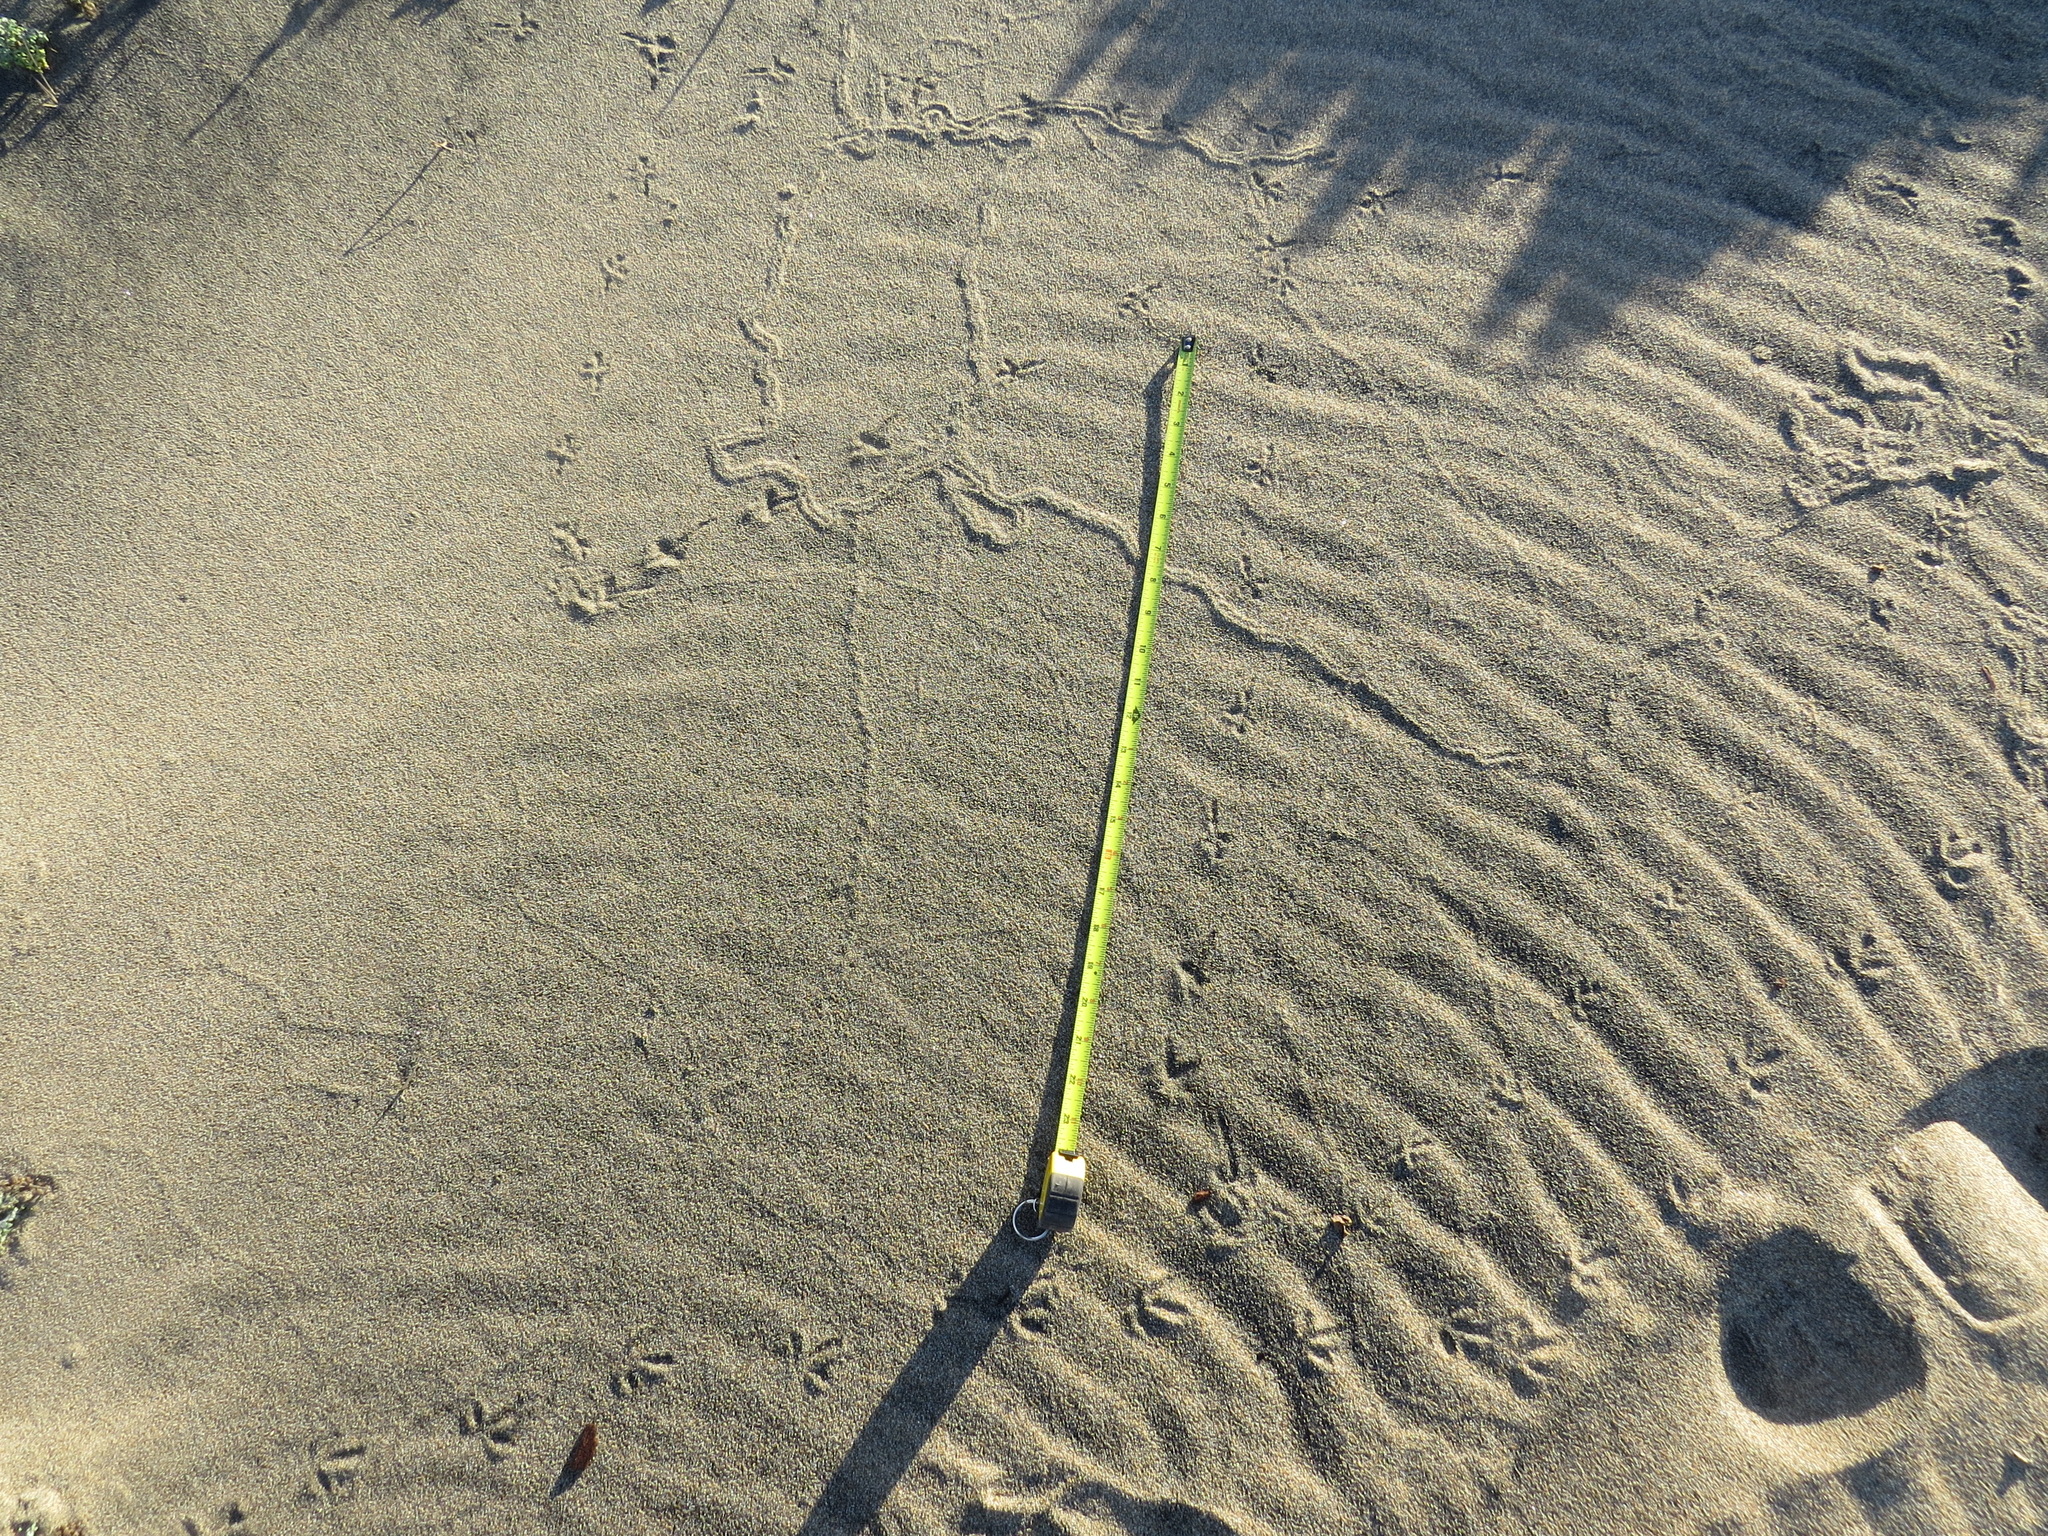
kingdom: Animalia
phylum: Chordata
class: Aves
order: Passeriformes
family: Motacillidae
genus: Anthus
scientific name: Anthus rubescens
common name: Buff-bellied pipit
